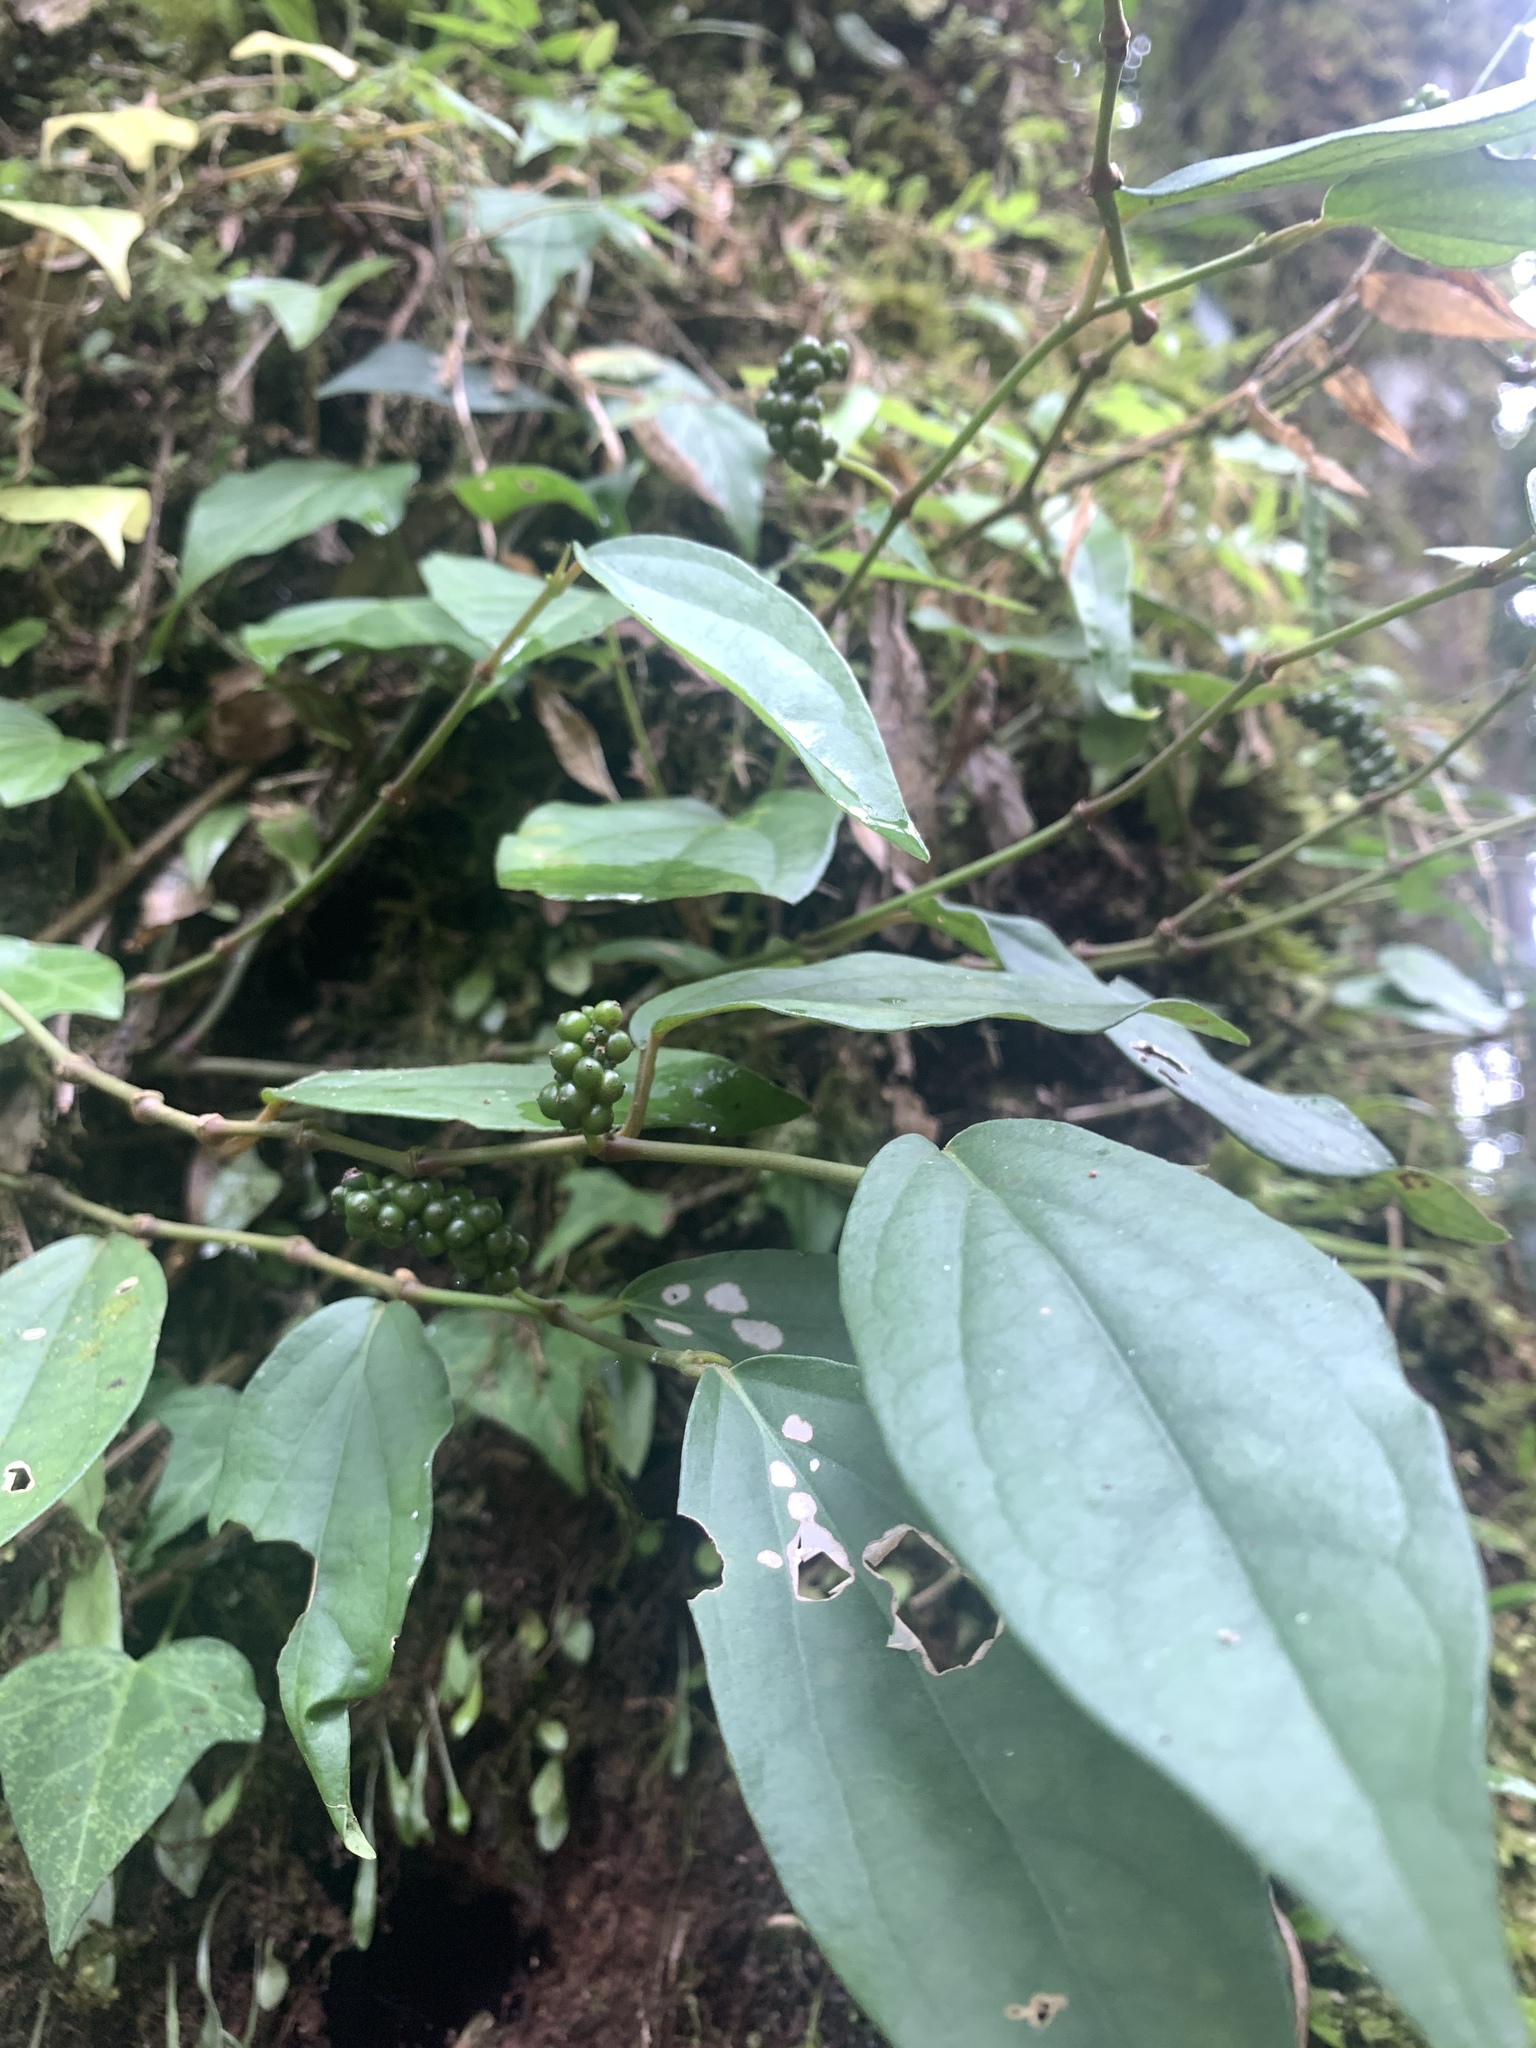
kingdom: Plantae
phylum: Tracheophyta
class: Magnoliopsida
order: Piperales
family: Piperaceae
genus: Piper
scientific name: Piper kadsura
